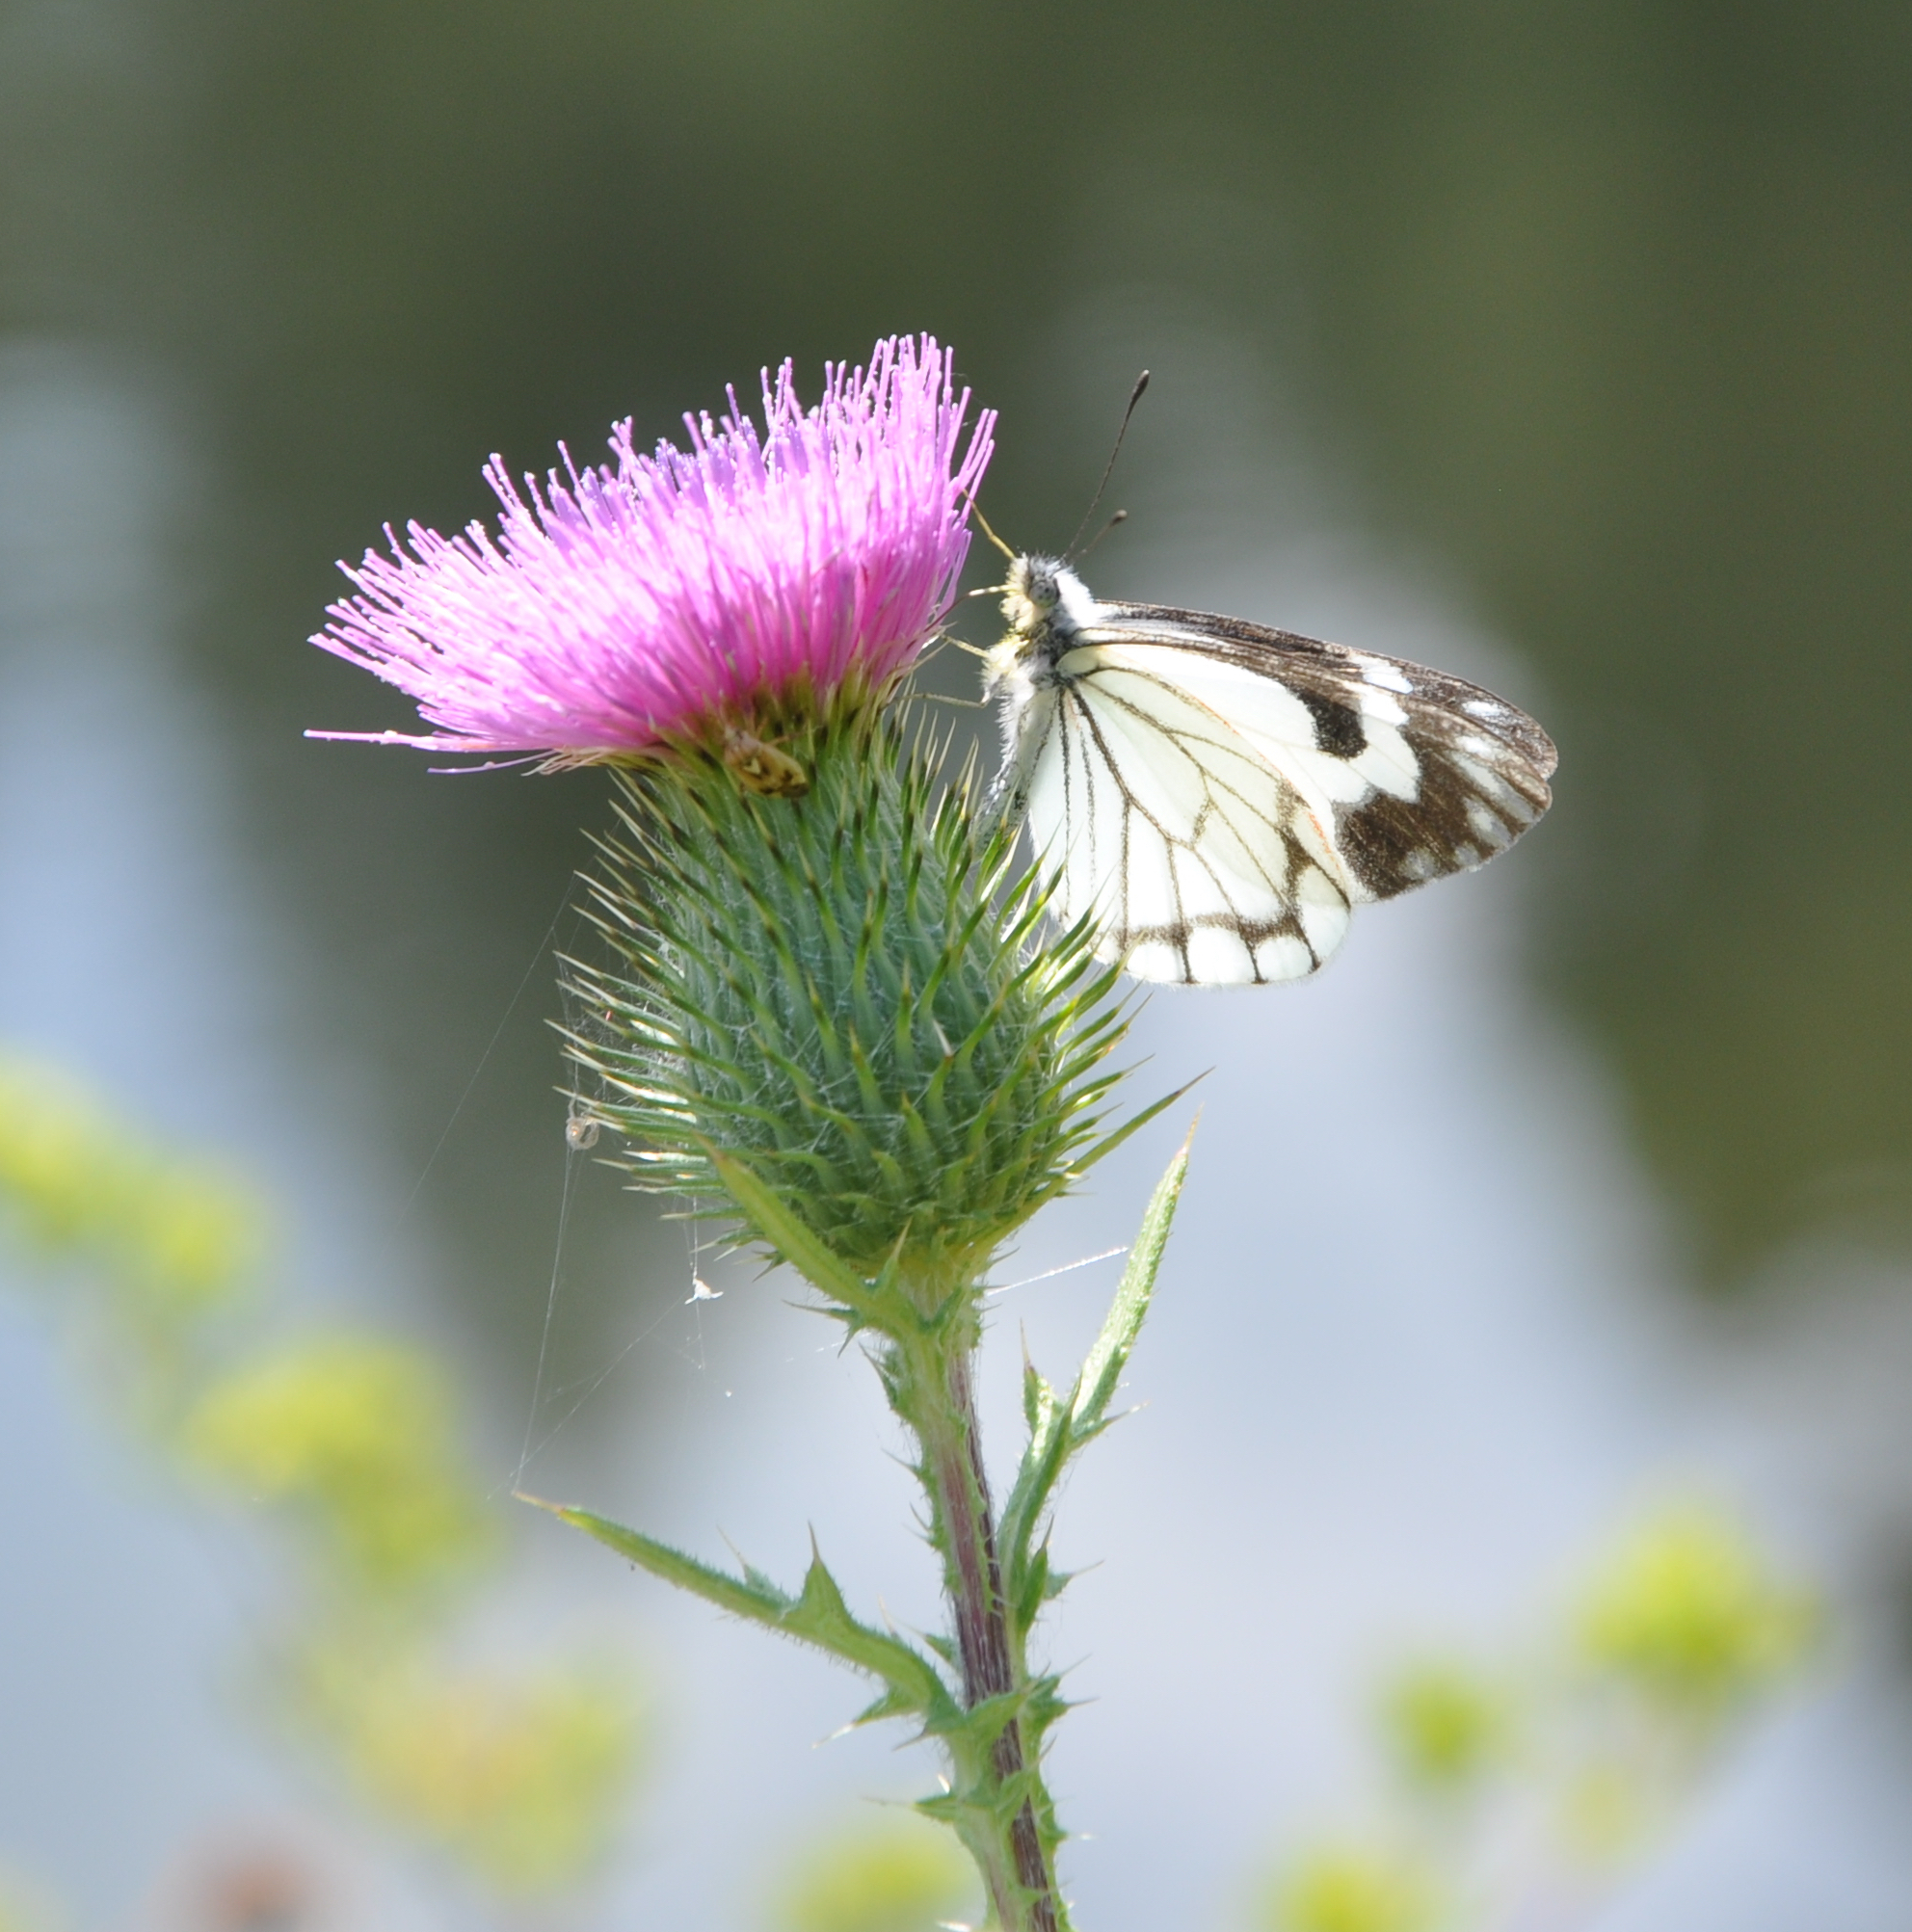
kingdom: Animalia
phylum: Arthropoda
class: Insecta
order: Lepidoptera
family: Pieridae
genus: Neophasia
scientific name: Neophasia menapia
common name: Pine white
